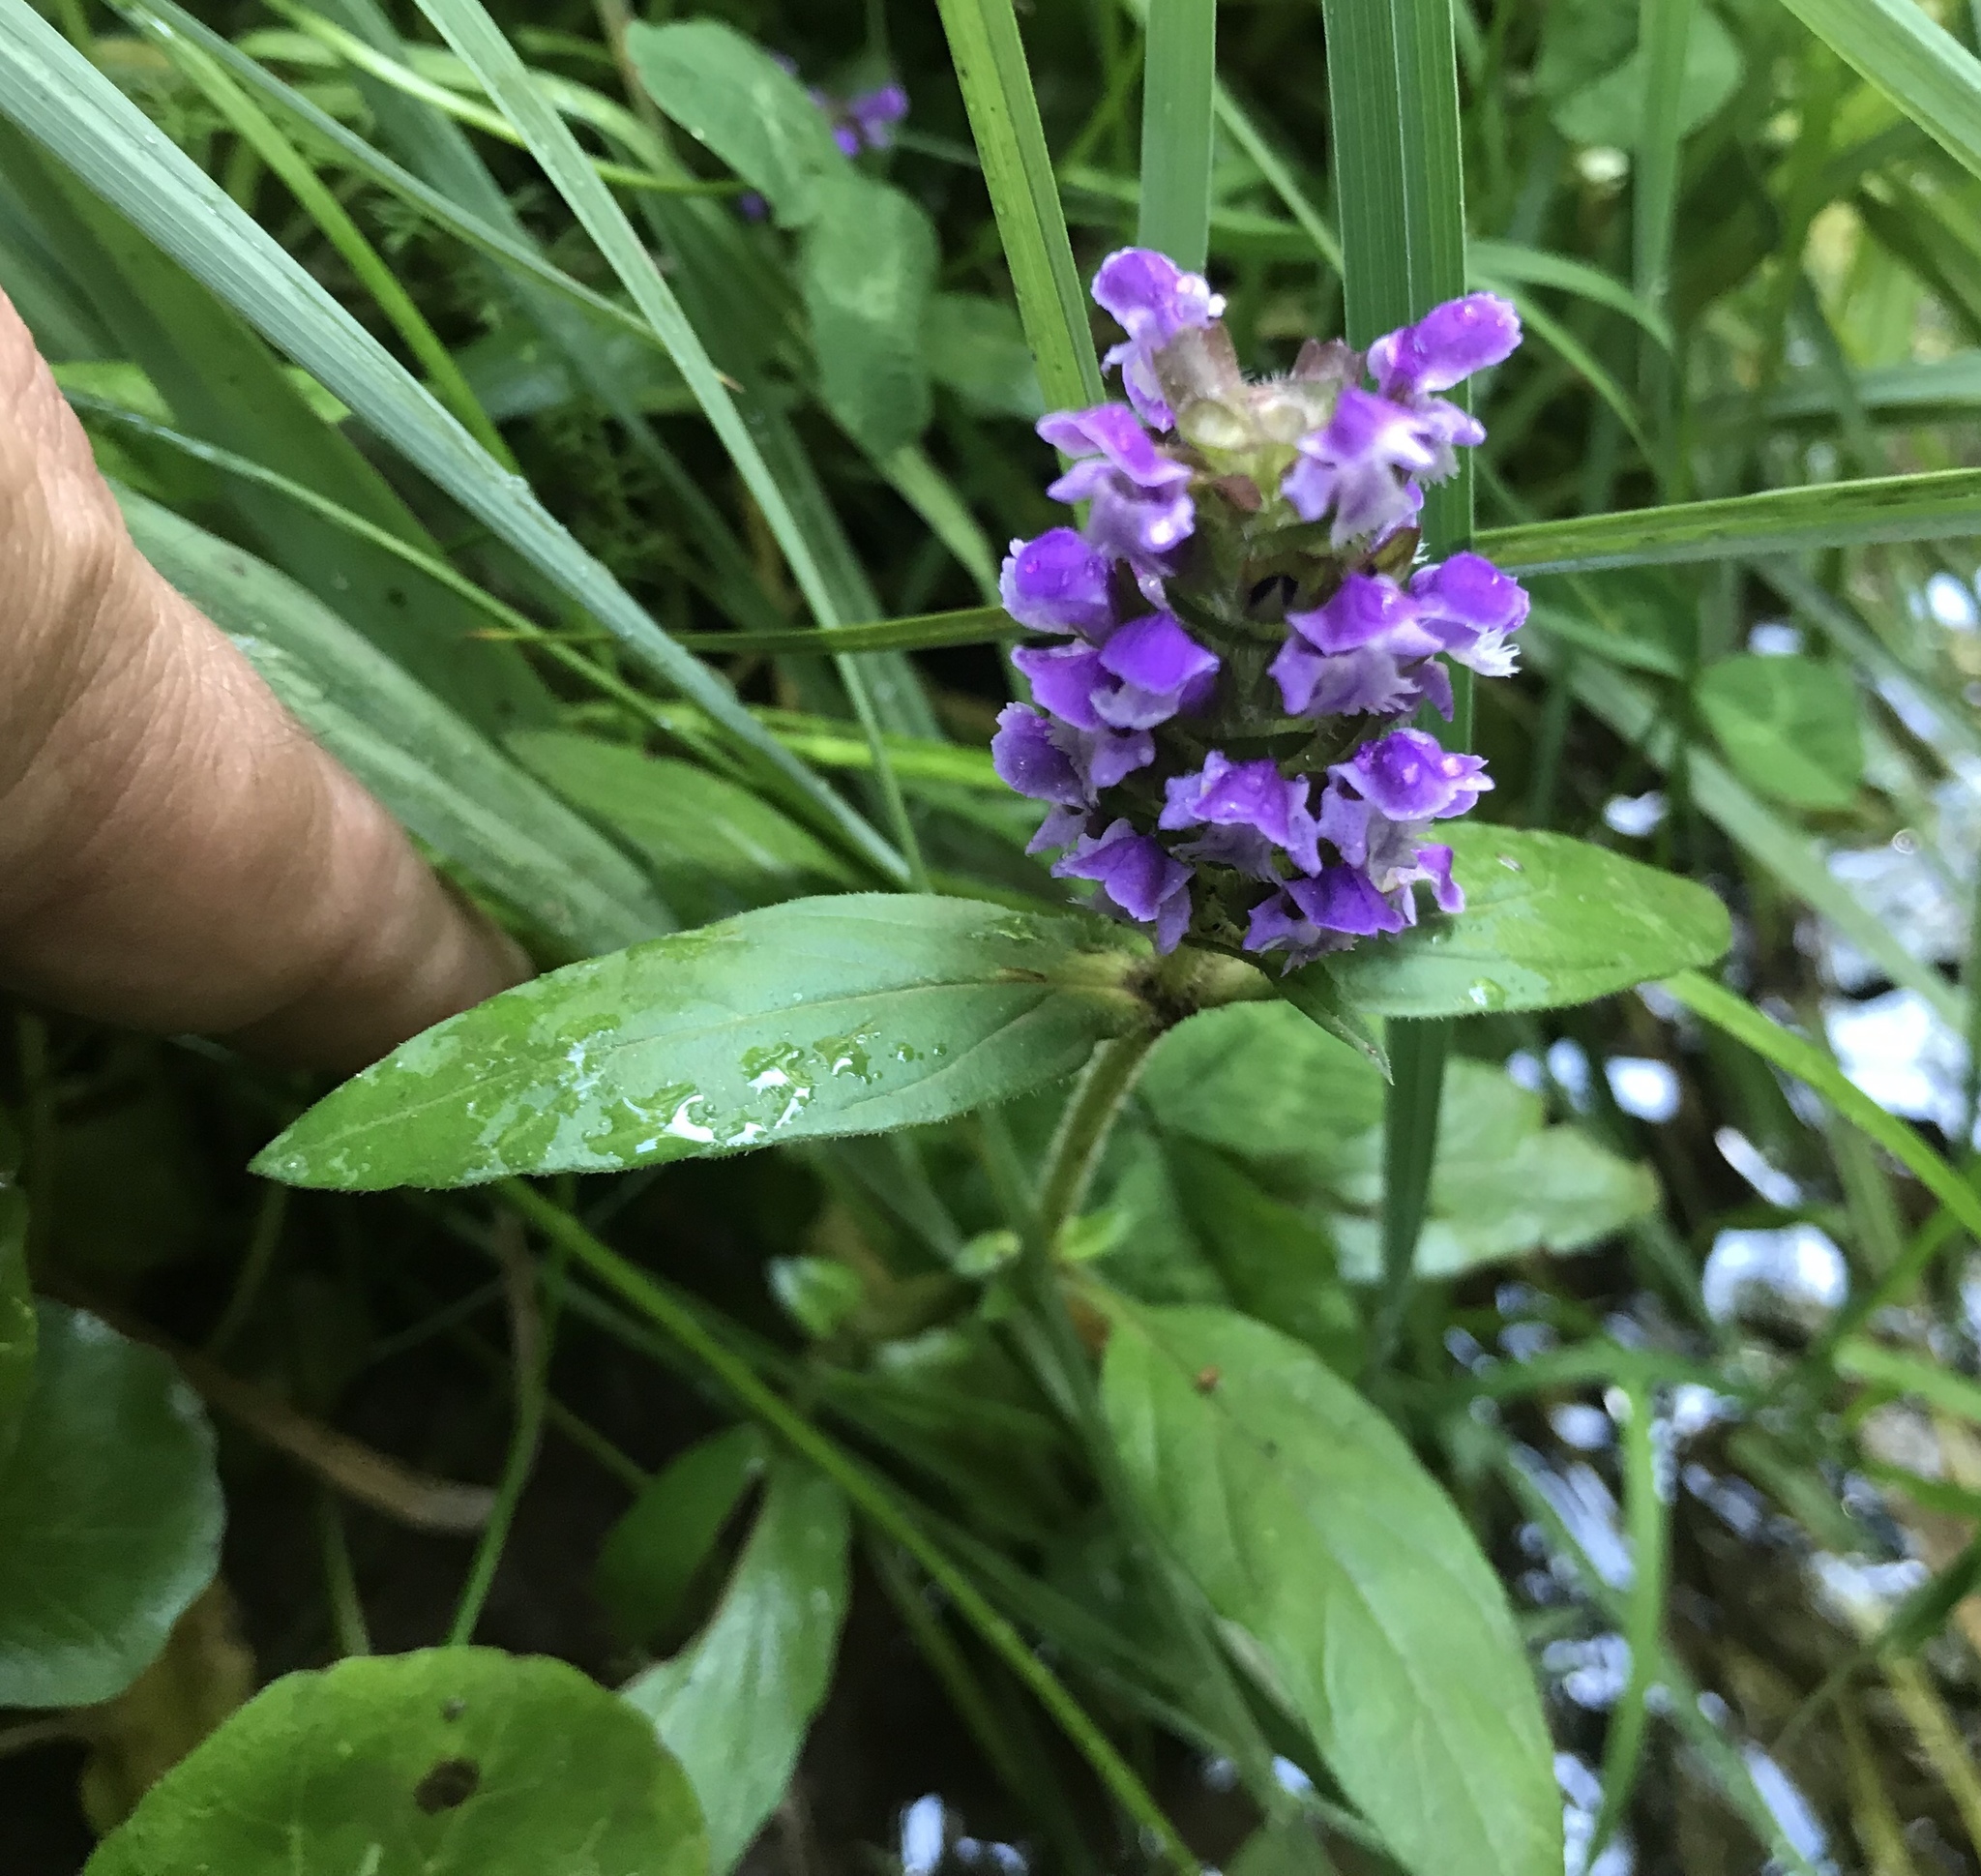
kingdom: Plantae
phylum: Tracheophyta
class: Magnoliopsida
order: Lamiales
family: Lamiaceae
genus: Prunella
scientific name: Prunella vulgaris
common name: Heal-all
